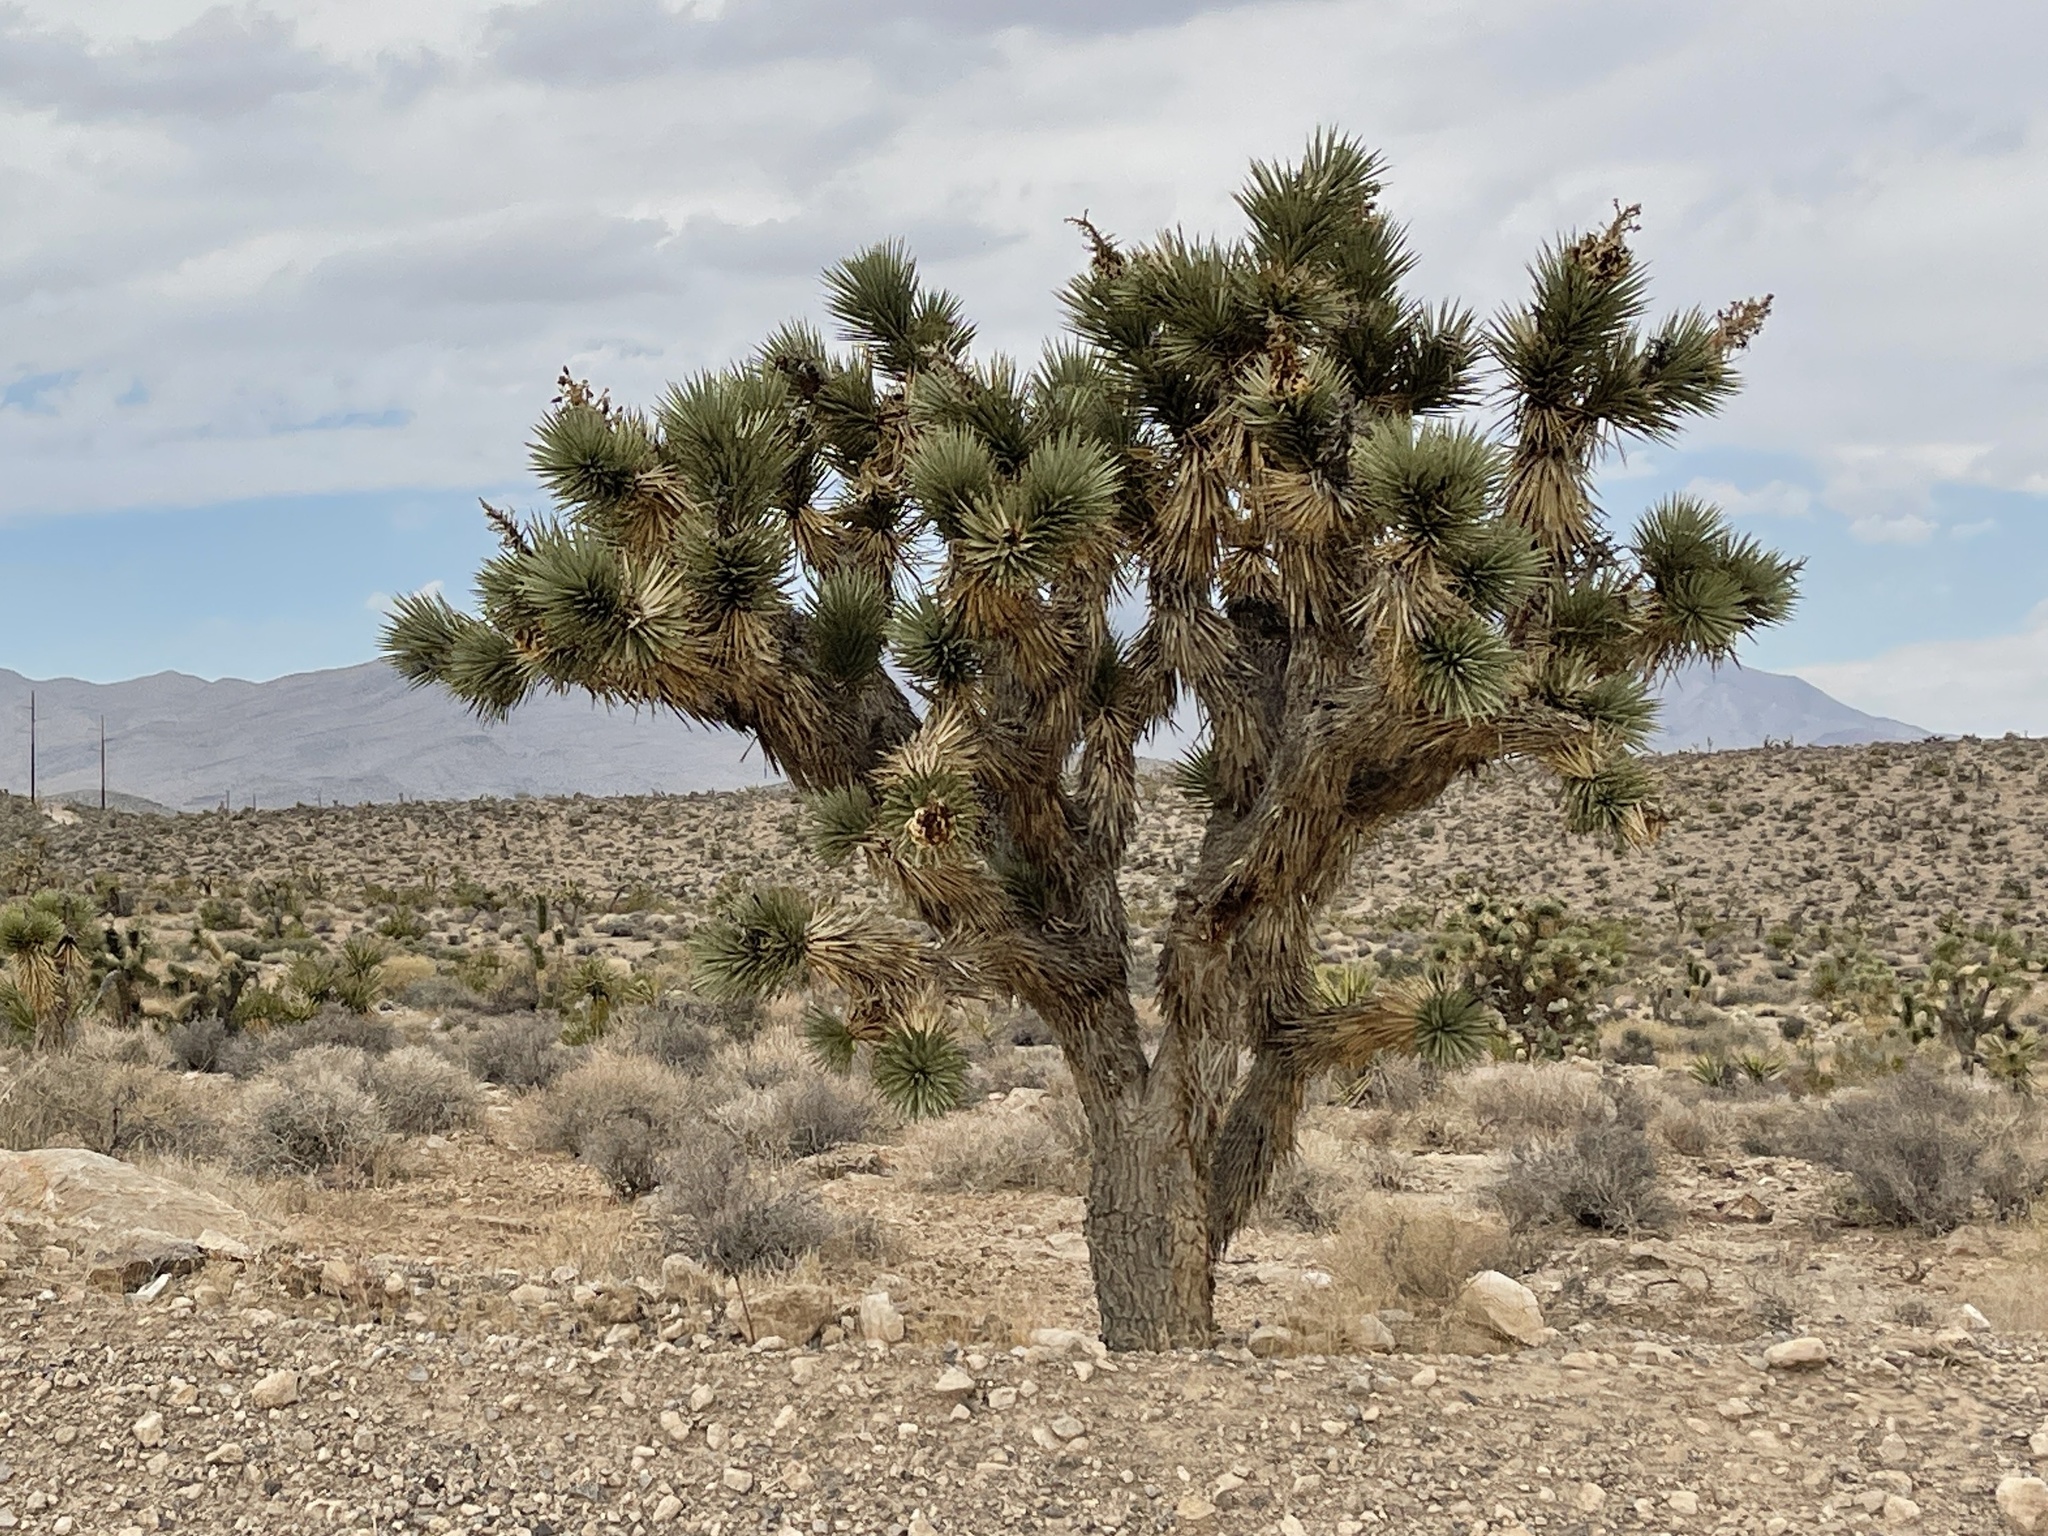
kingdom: Plantae
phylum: Tracheophyta
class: Liliopsida
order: Asparagales
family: Asparagaceae
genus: Yucca
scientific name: Yucca brevifolia
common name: Joshua tree
